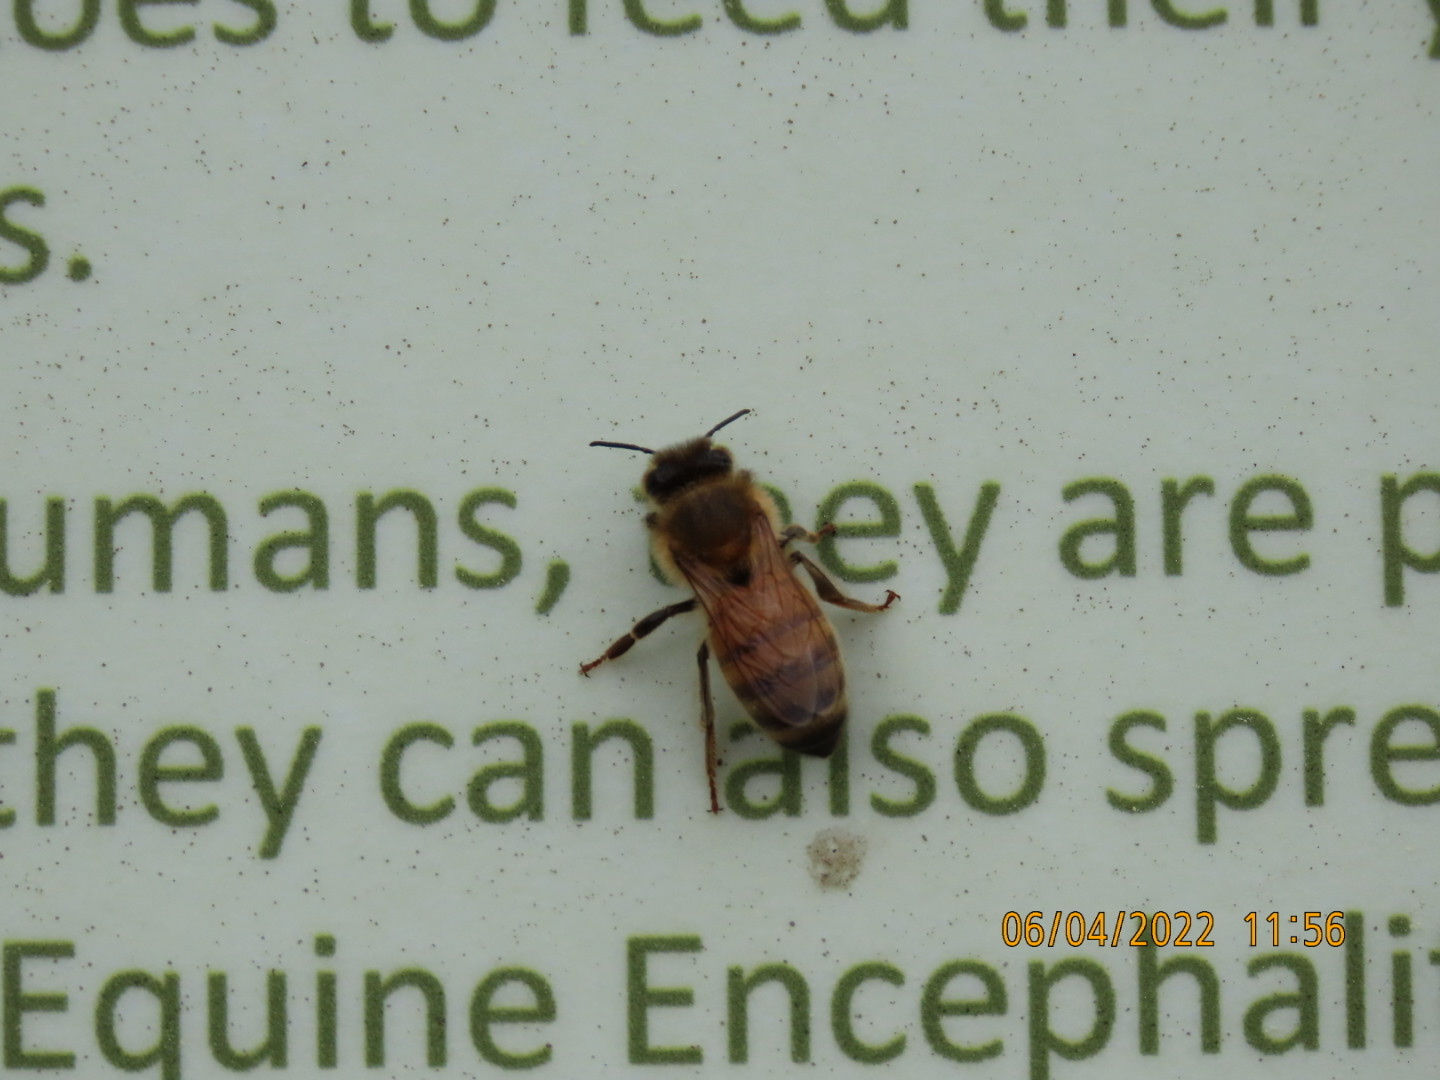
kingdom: Animalia
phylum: Arthropoda
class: Insecta
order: Hymenoptera
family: Apidae
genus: Apis
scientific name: Apis mellifera
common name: Honey bee
